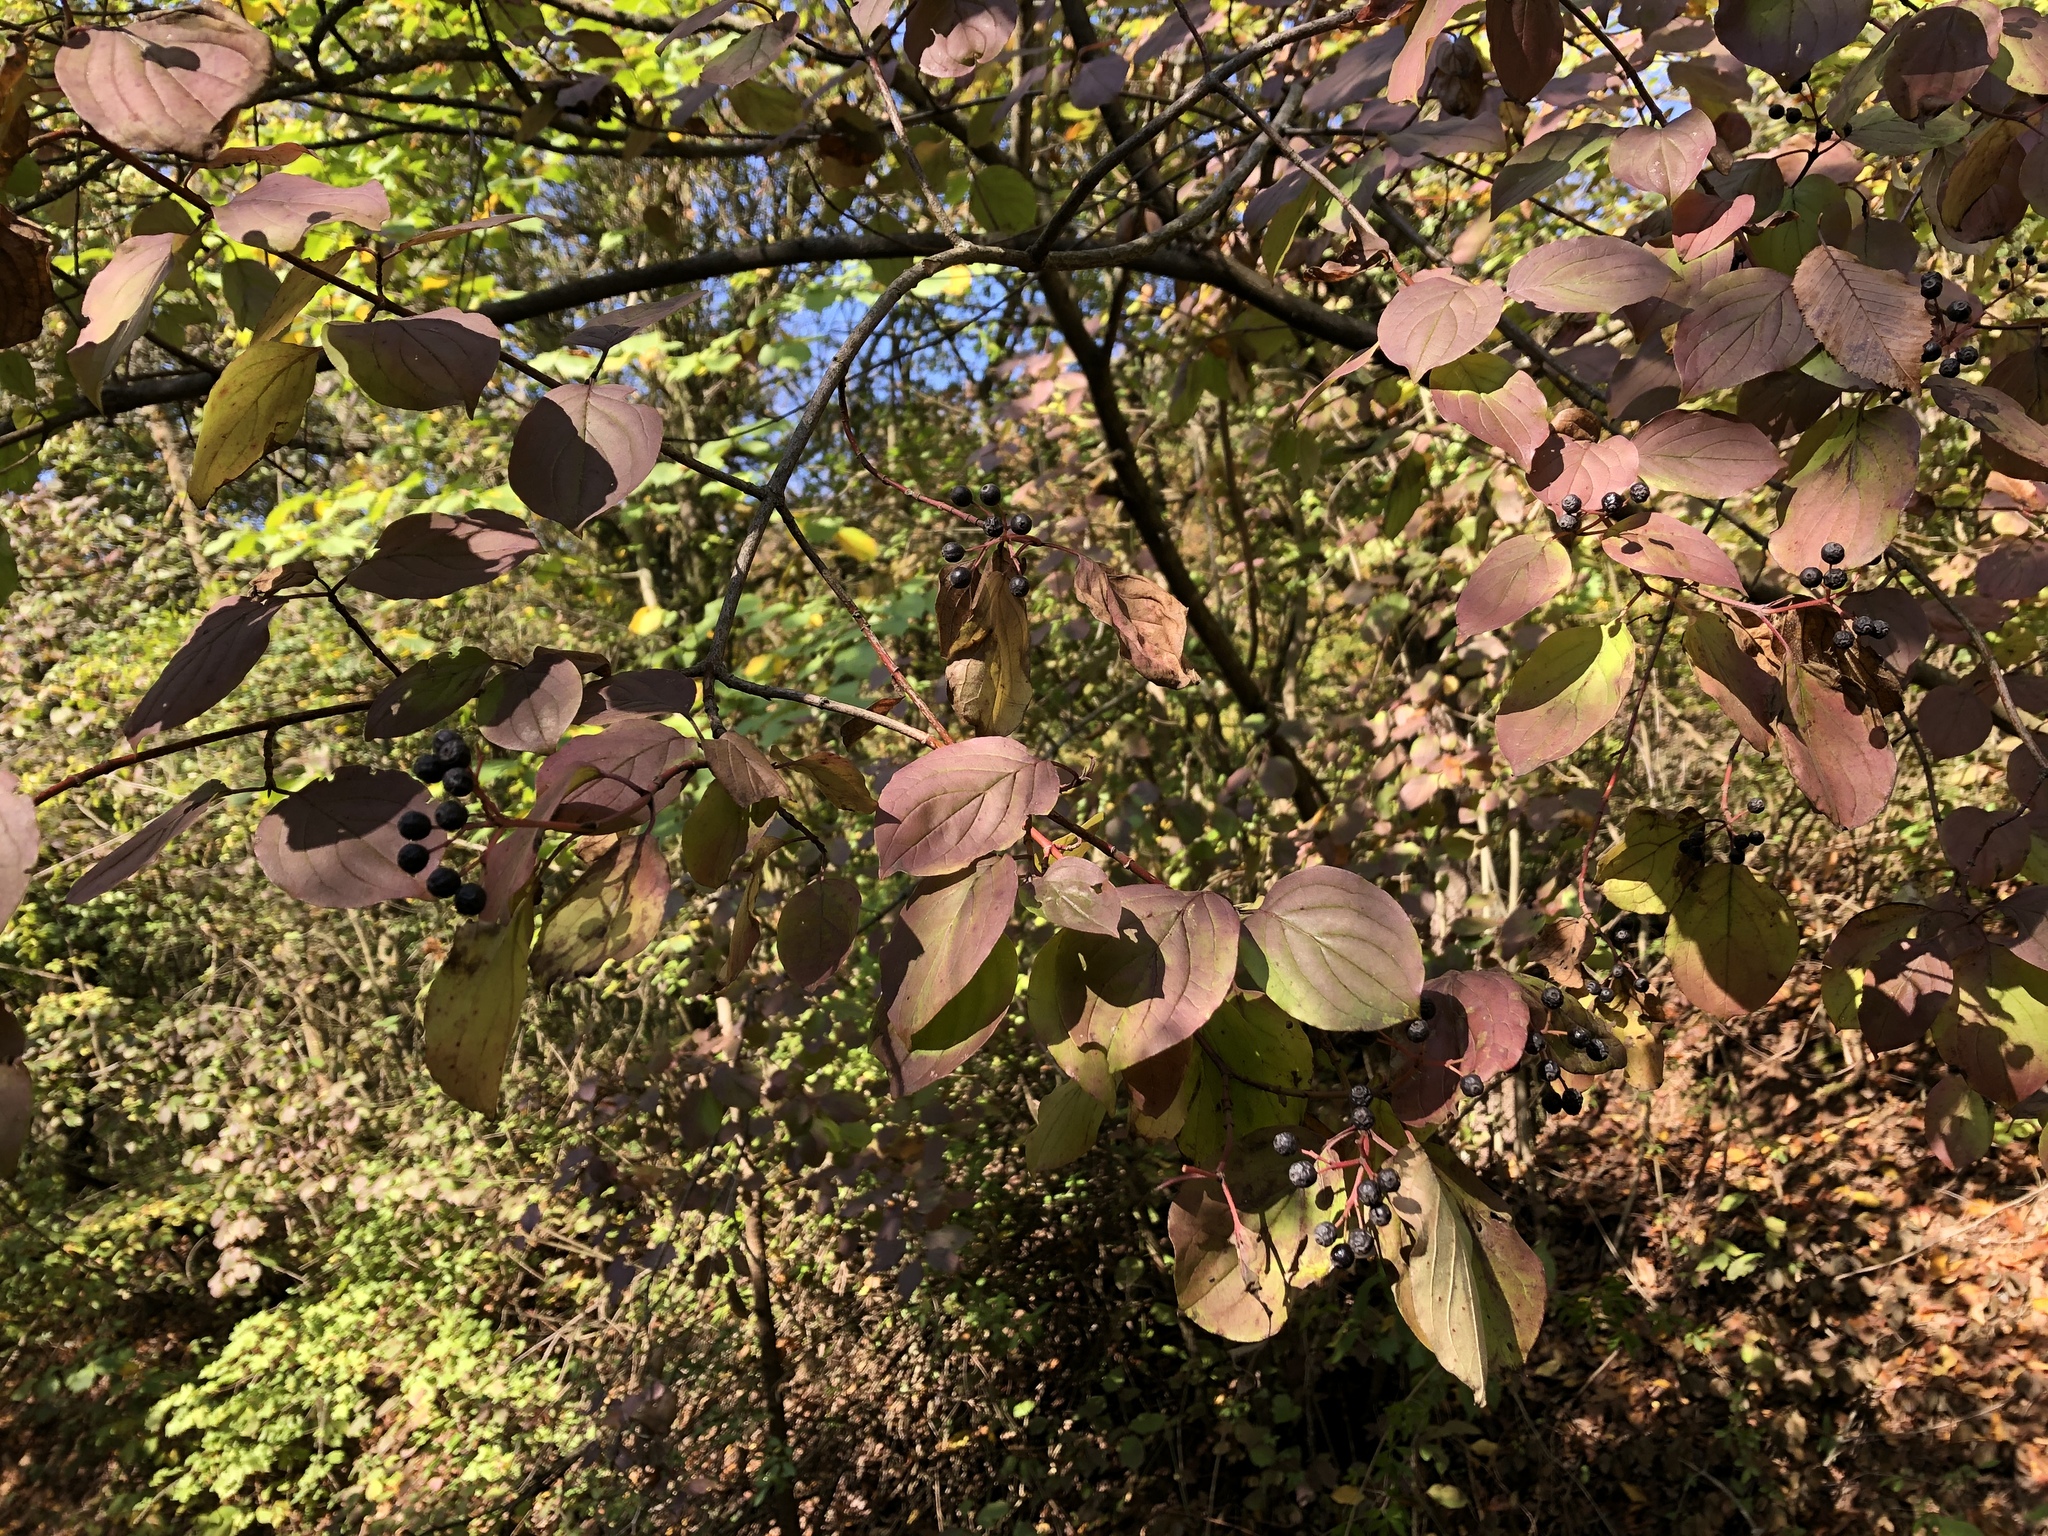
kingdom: Plantae
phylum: Tracheophyta
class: Magnoliopsida
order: Cornales
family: Cornaceae
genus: Cornus
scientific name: Cornus sanguinea
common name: Dogwood
